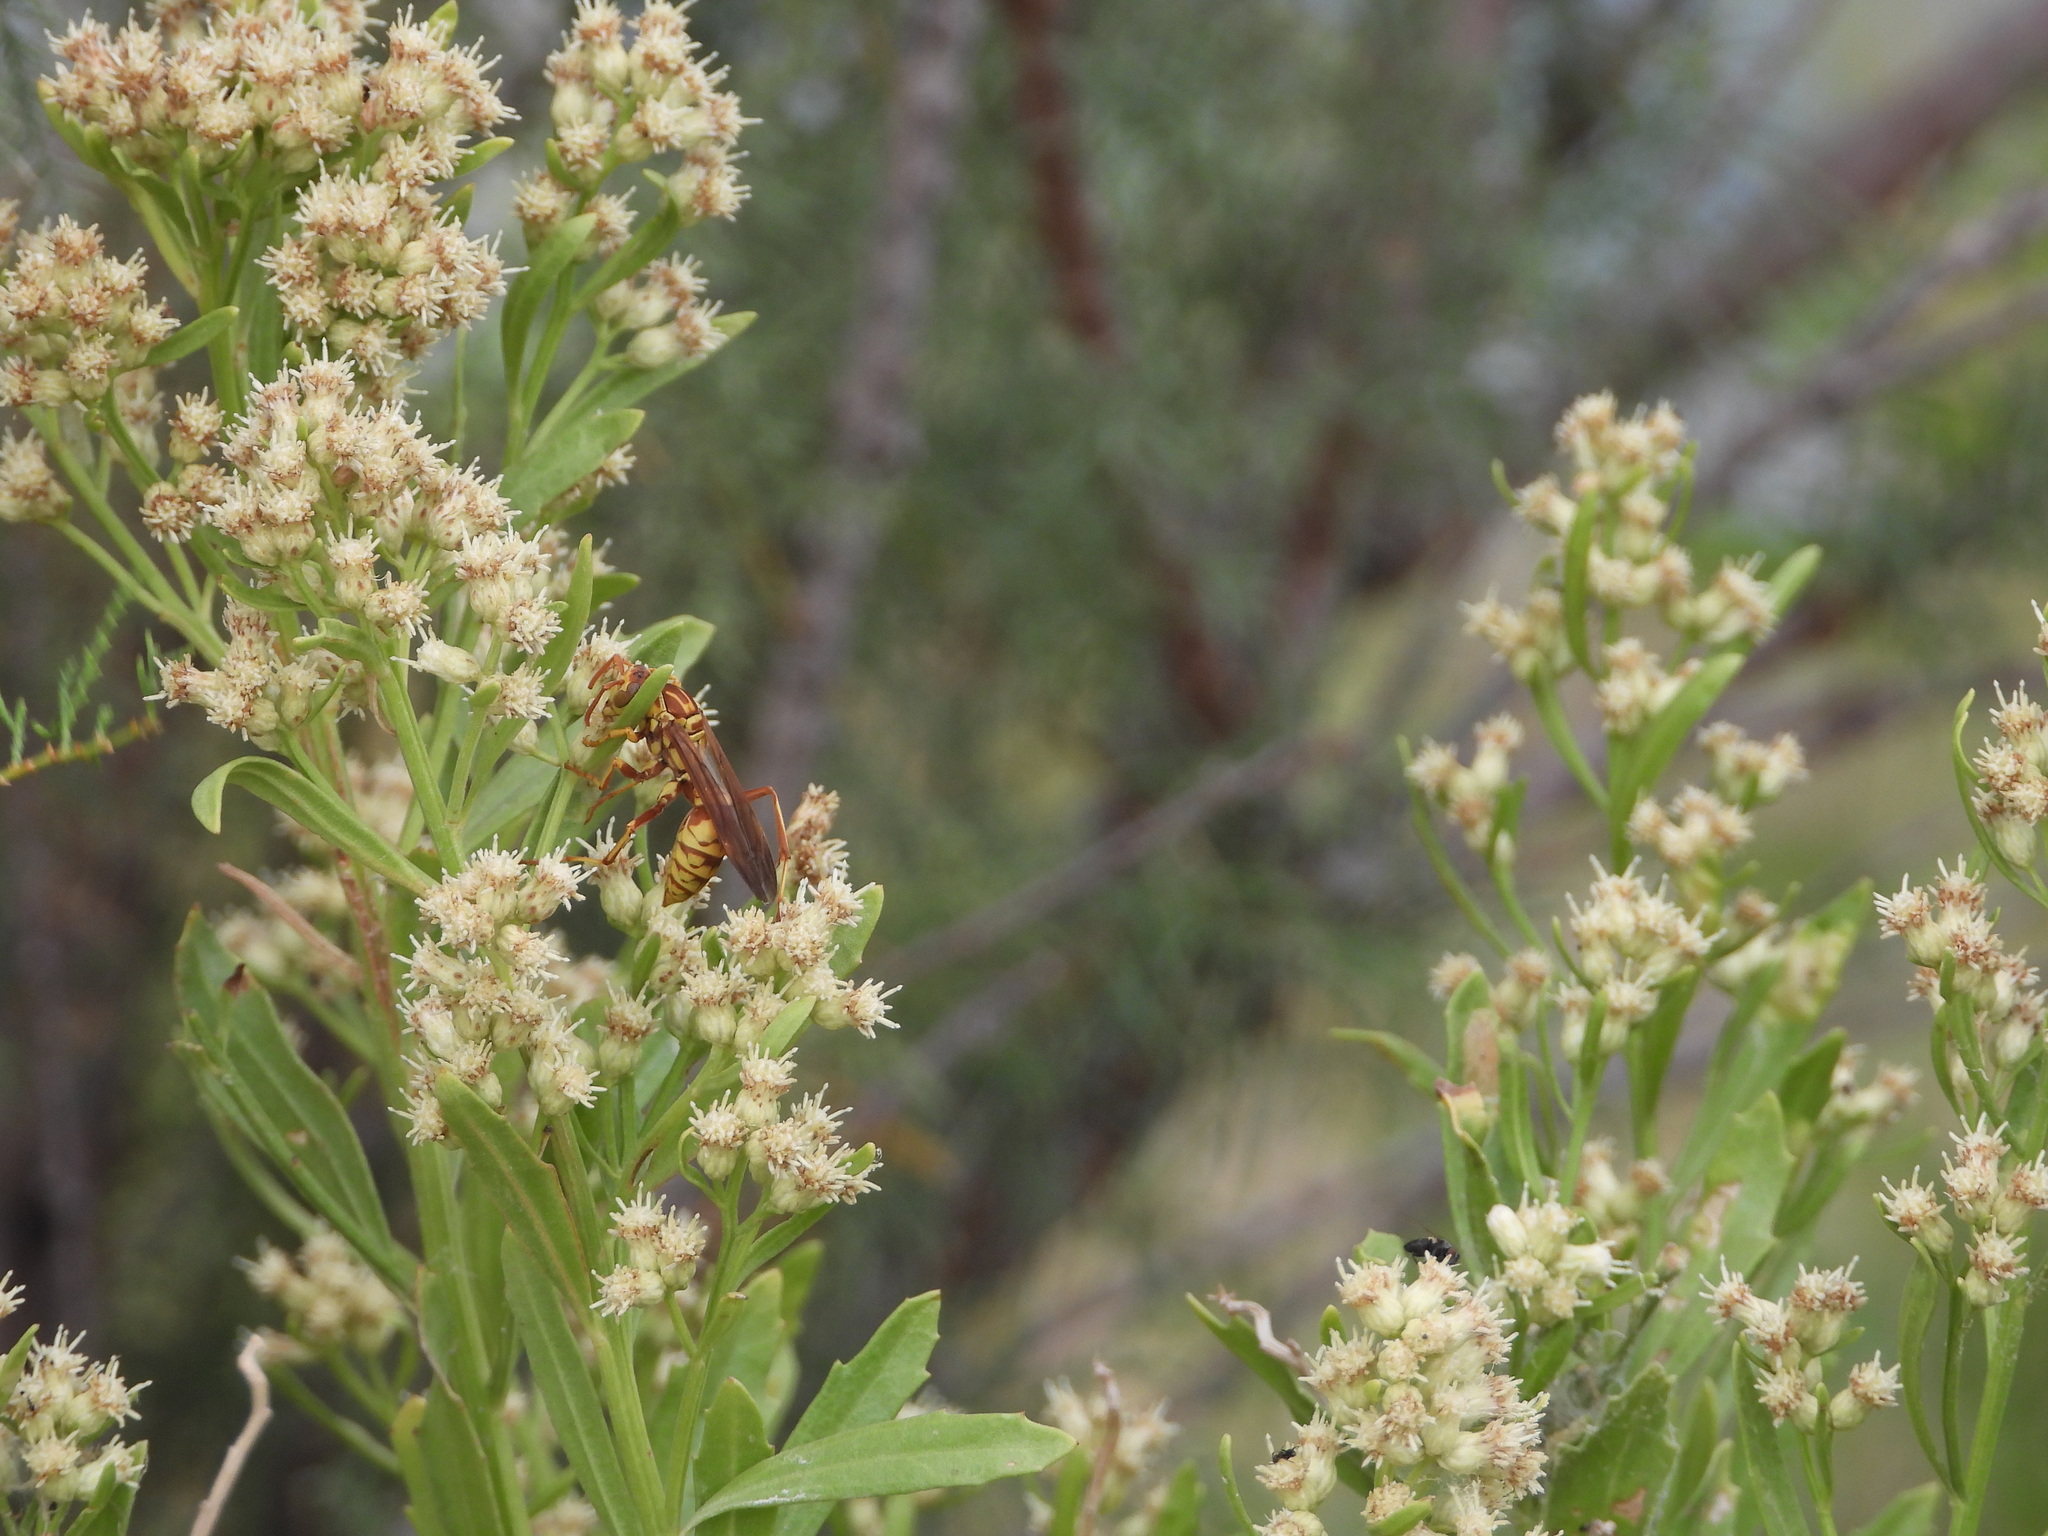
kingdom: Animalia
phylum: Arthropoda
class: Insecta
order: Hymenoptera
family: Eumenidae
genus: Polistes
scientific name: Polistes apachus
